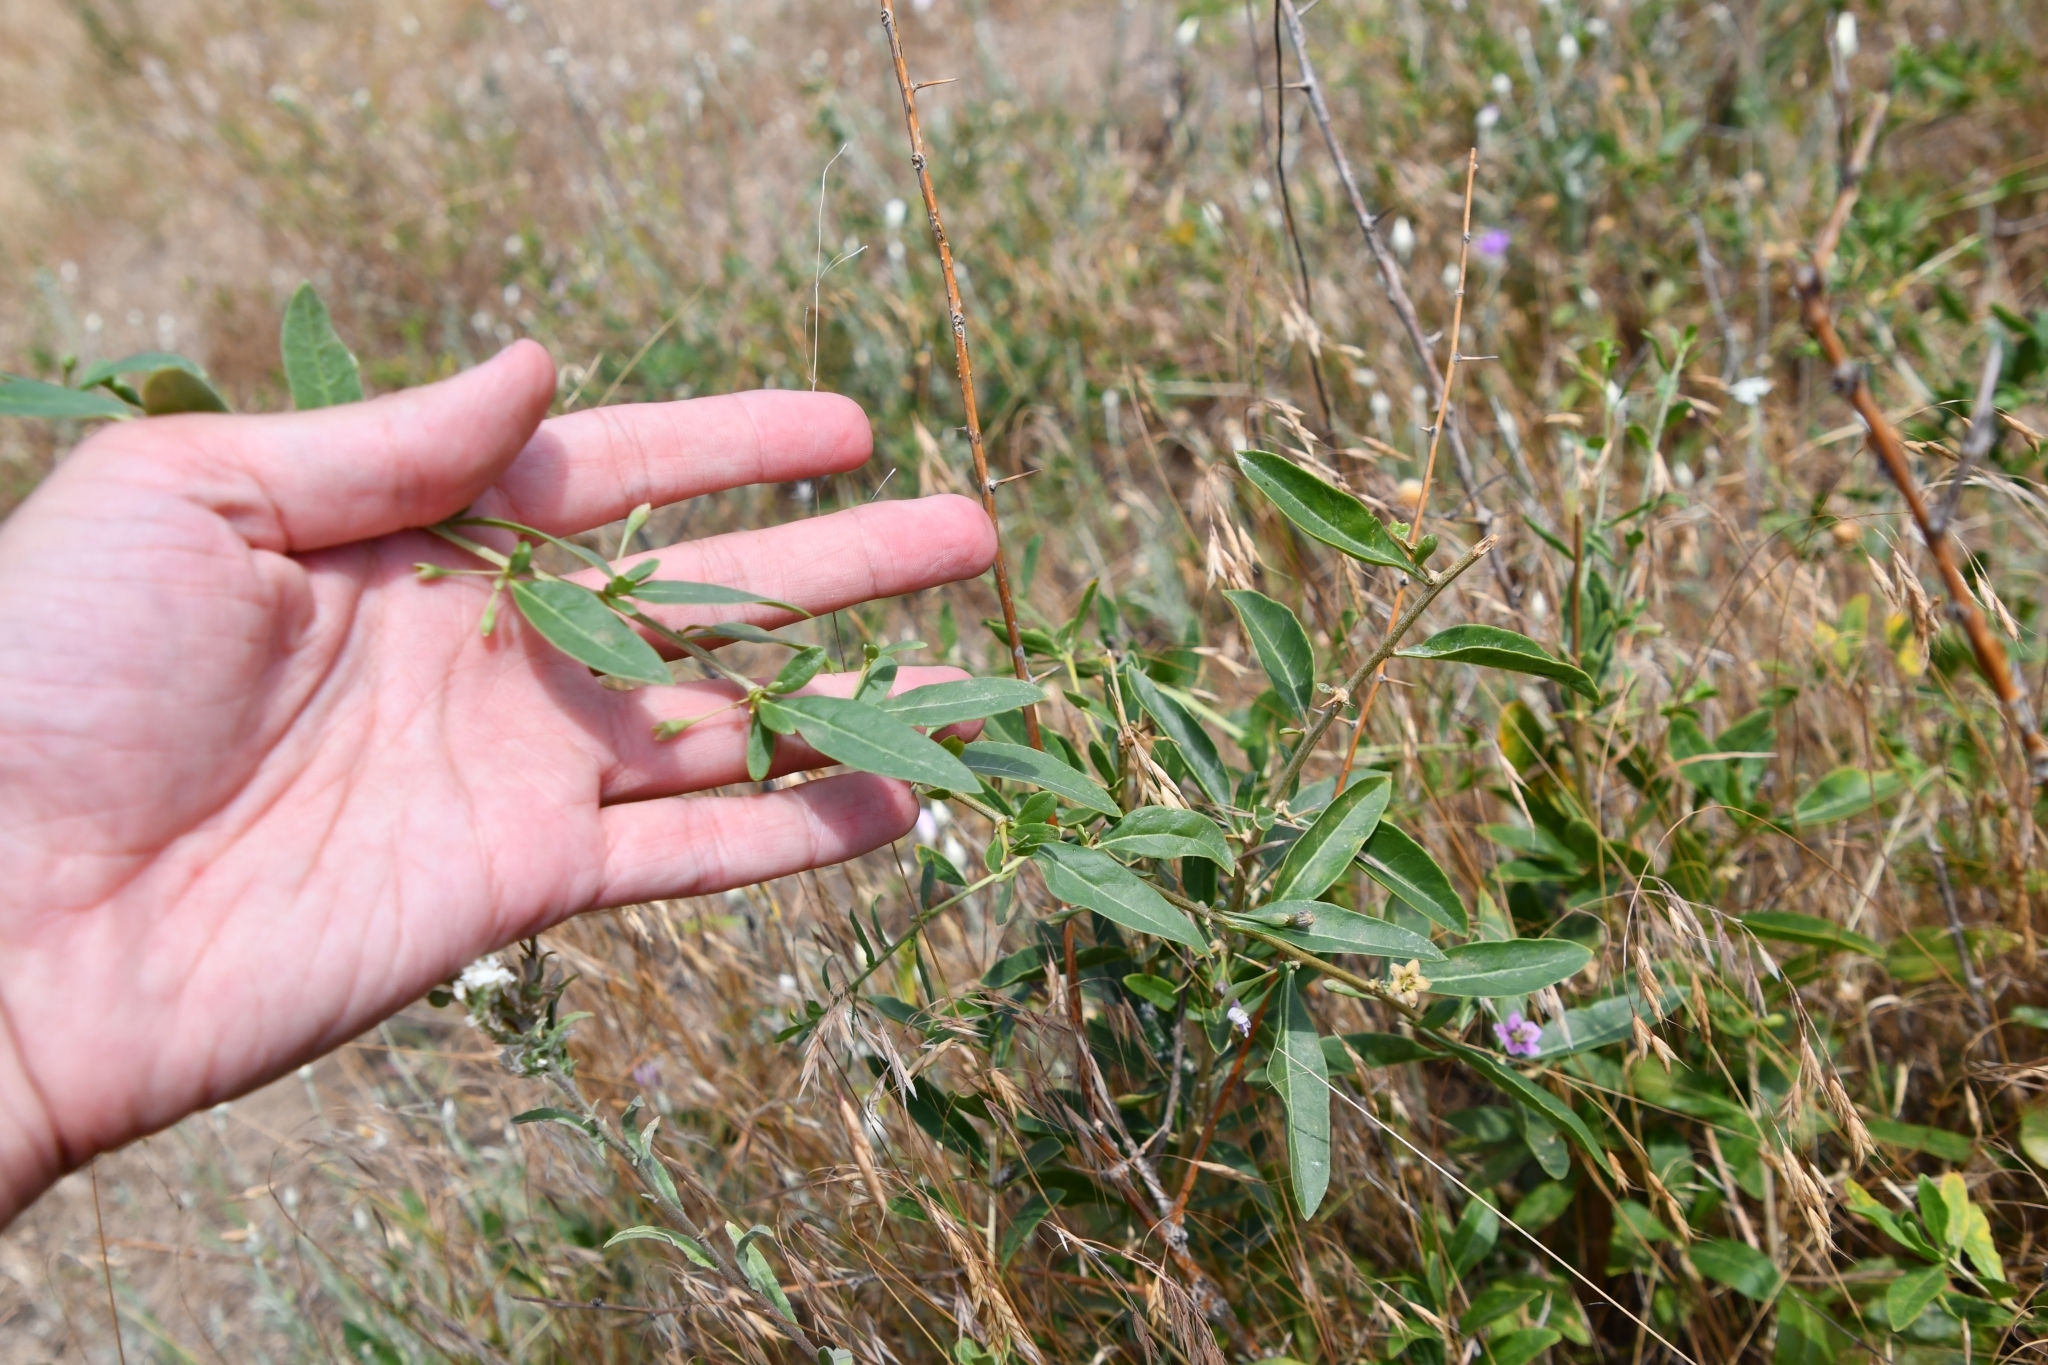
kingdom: Plantae
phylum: Tracheophyta
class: Magnoliopsida
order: Solanales
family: Solanaceae
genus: Lycium
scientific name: Lycium barbarum
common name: Duke of argyll's teaplant
